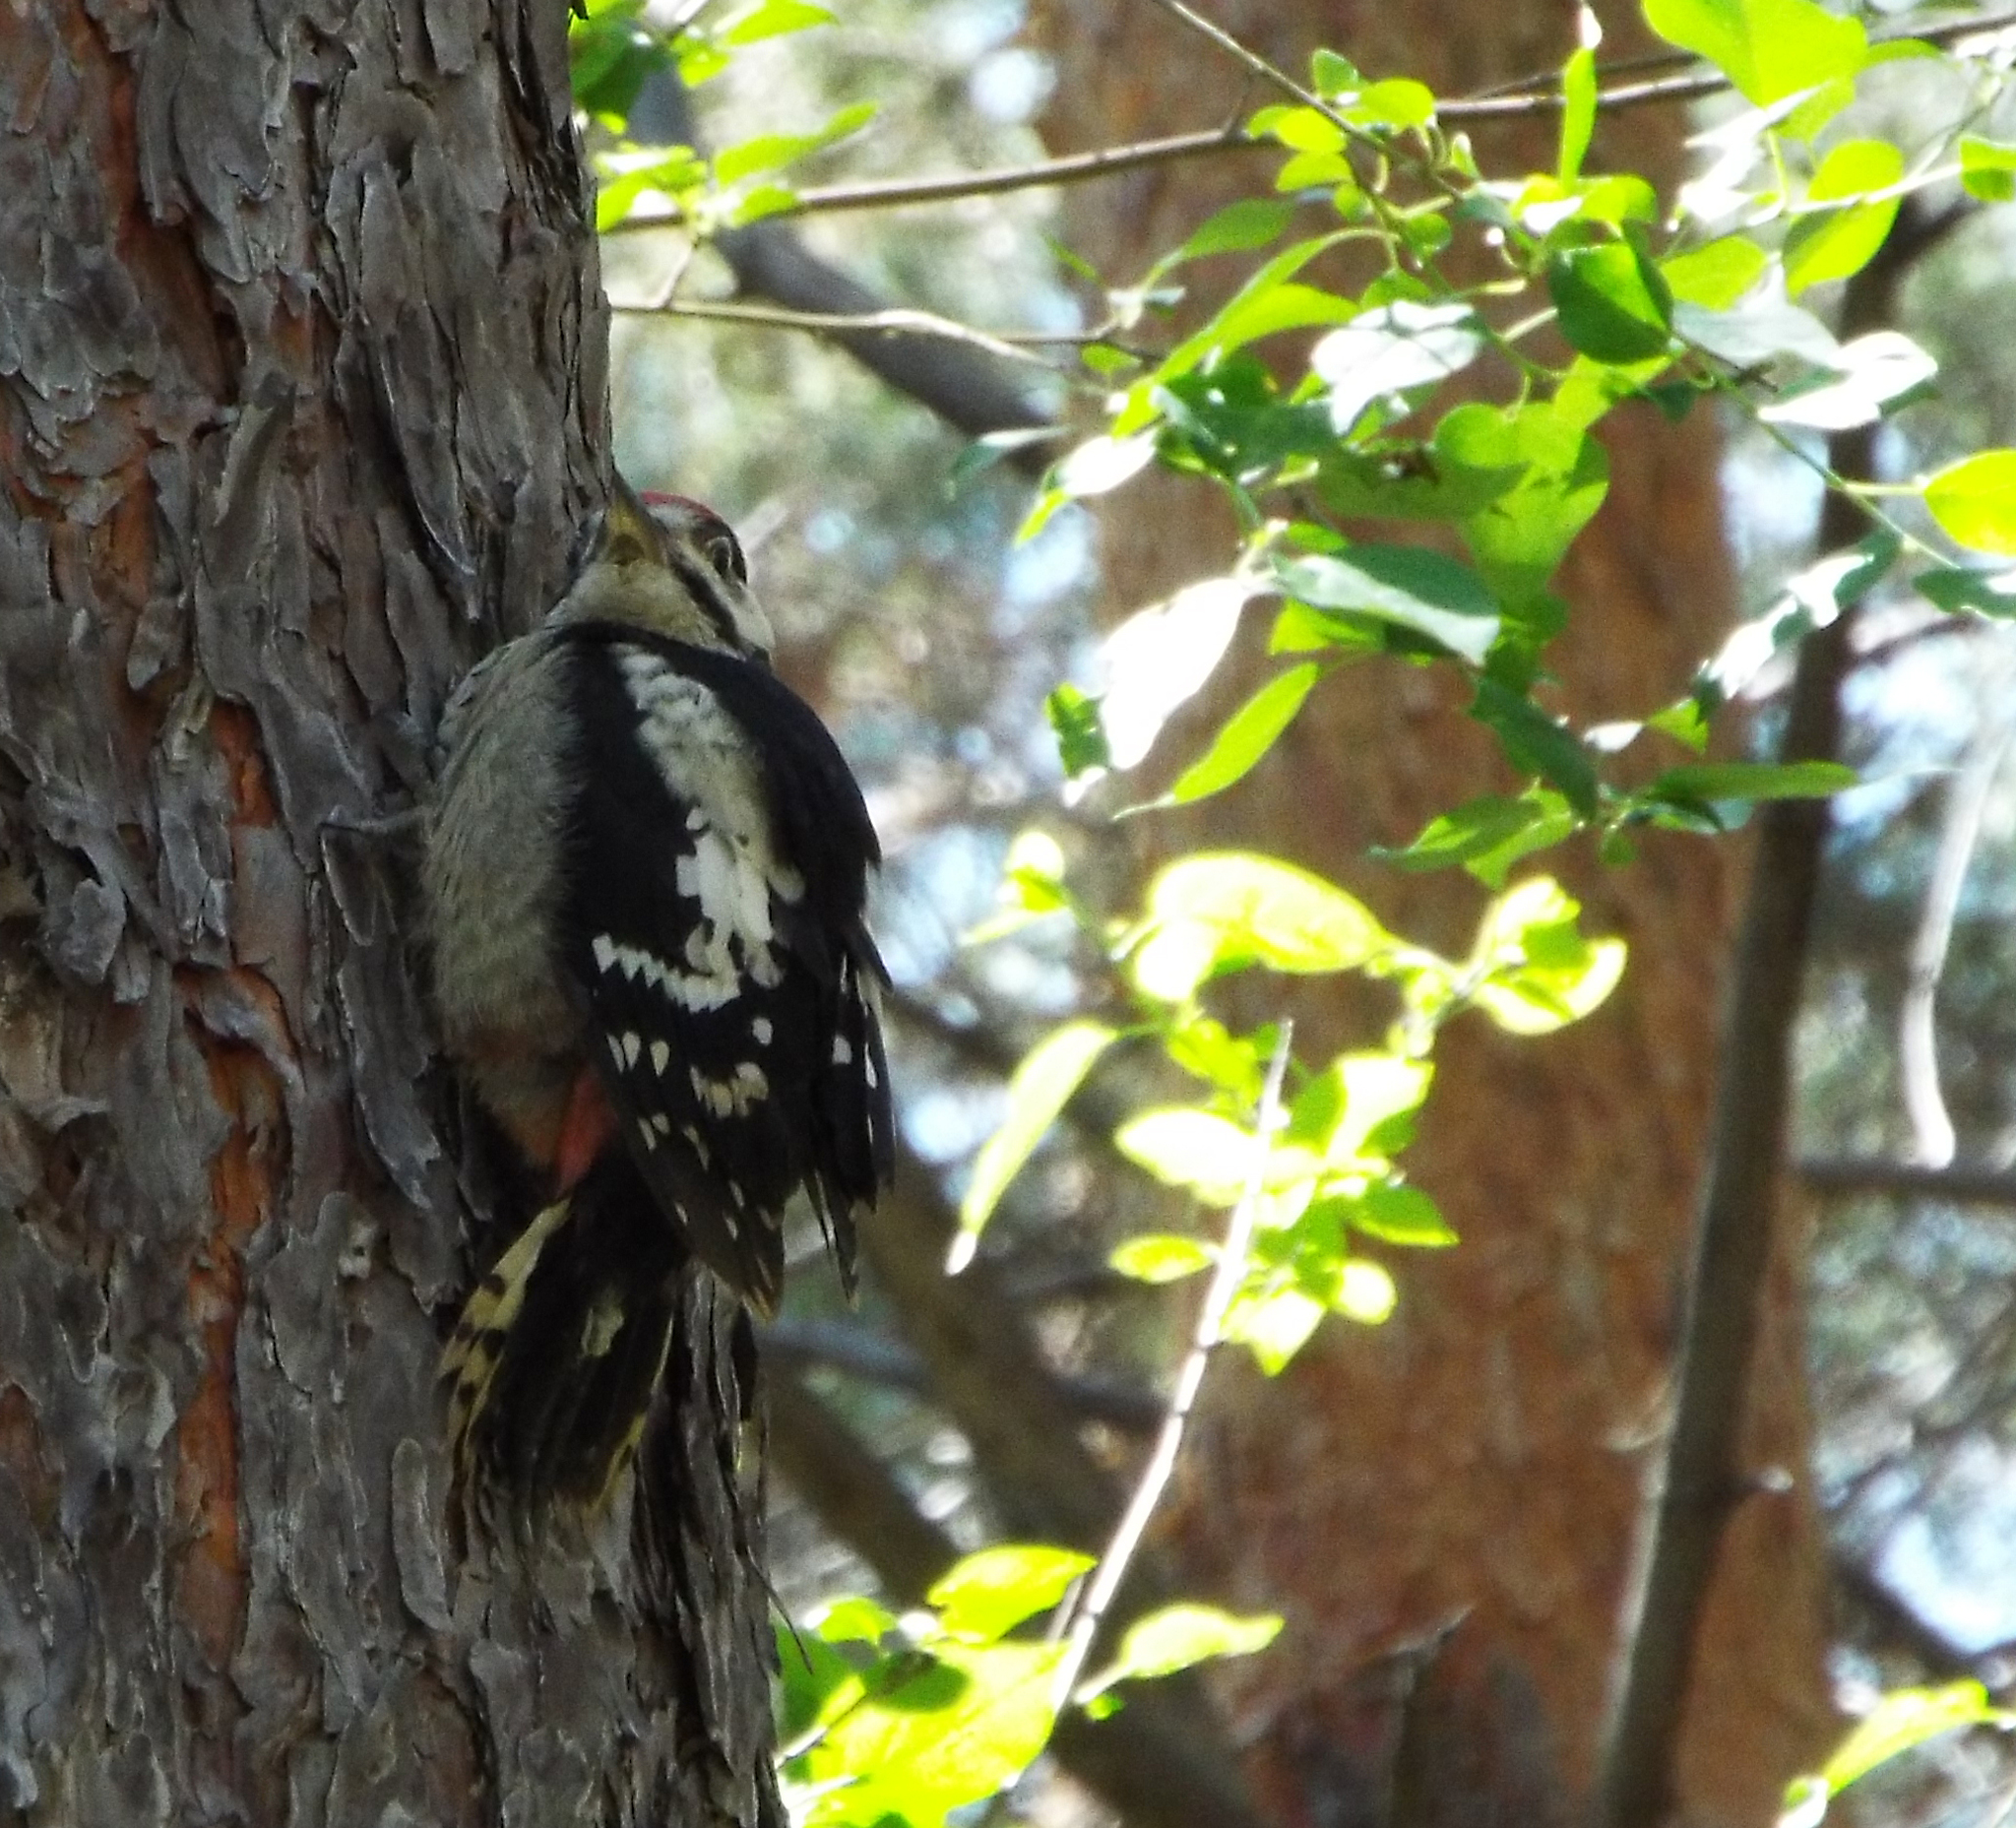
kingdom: Animalia
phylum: Chordata
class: Aves
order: Piciformes
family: Picidae
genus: Dendrocopos
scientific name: Dendrocopos major
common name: Great spotted woodpecker
